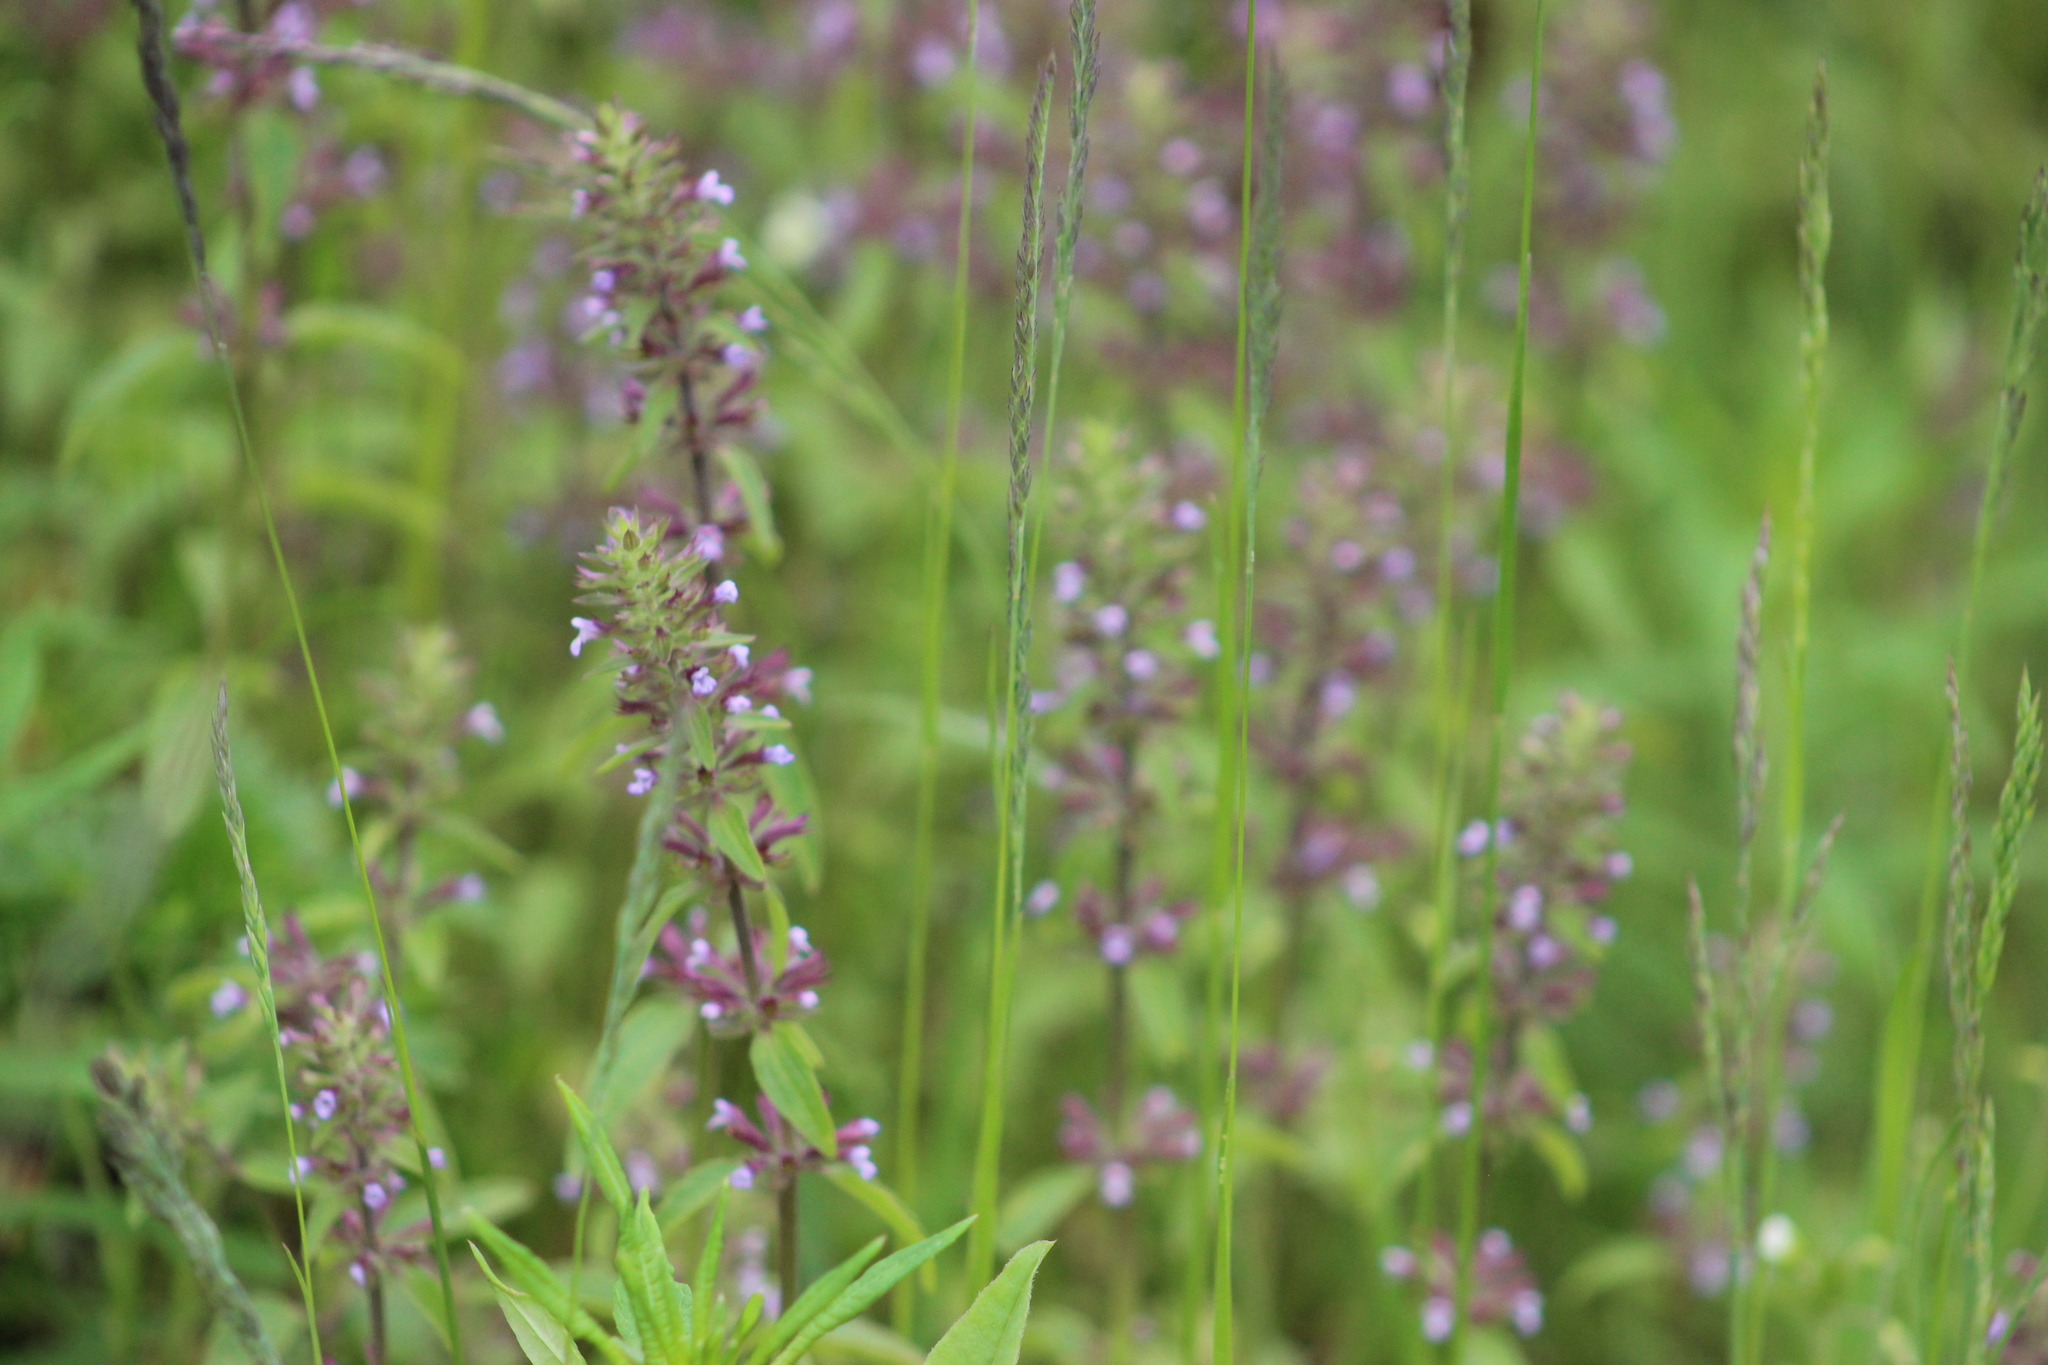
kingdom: Plantae
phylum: Tracheophyta
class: Magnoliopsida
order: Lamiales
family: Lamiaceae
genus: Dracocephalum
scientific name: Dracocephalum thymiflorum
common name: Thymeleaf dragonhead
